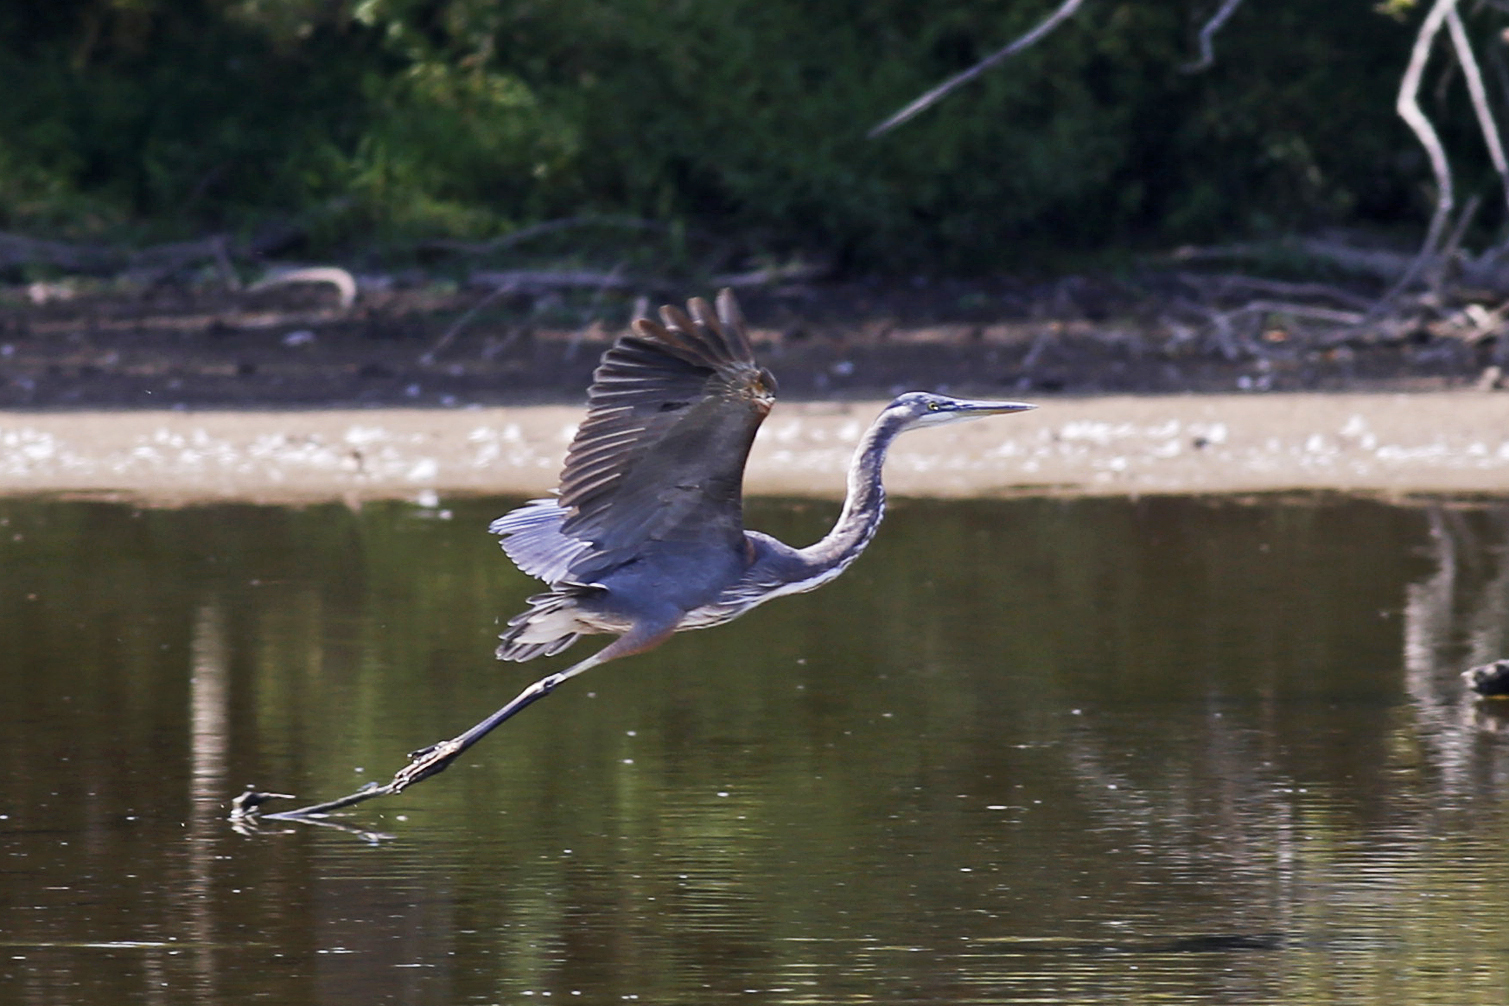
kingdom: Animalia
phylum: Chordata
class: Aves
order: Pelecaniformes
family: Ardeidae
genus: Ardea
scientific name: Ardea herodias
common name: Great blue heron
